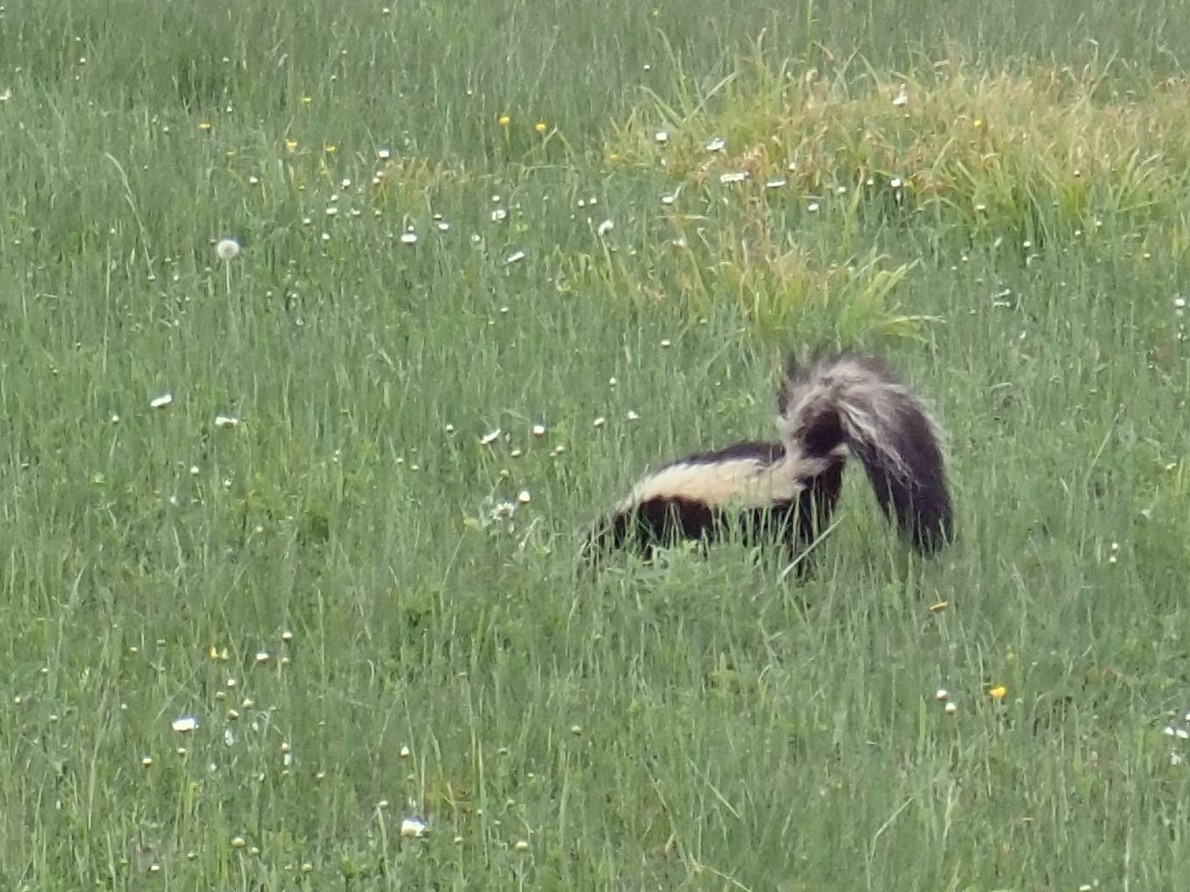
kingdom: Animalia
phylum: Chordata
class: Mammalia
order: Carnivora
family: Mephitidae
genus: Mephitis
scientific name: Mephitis mephitis
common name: Striped skunk
